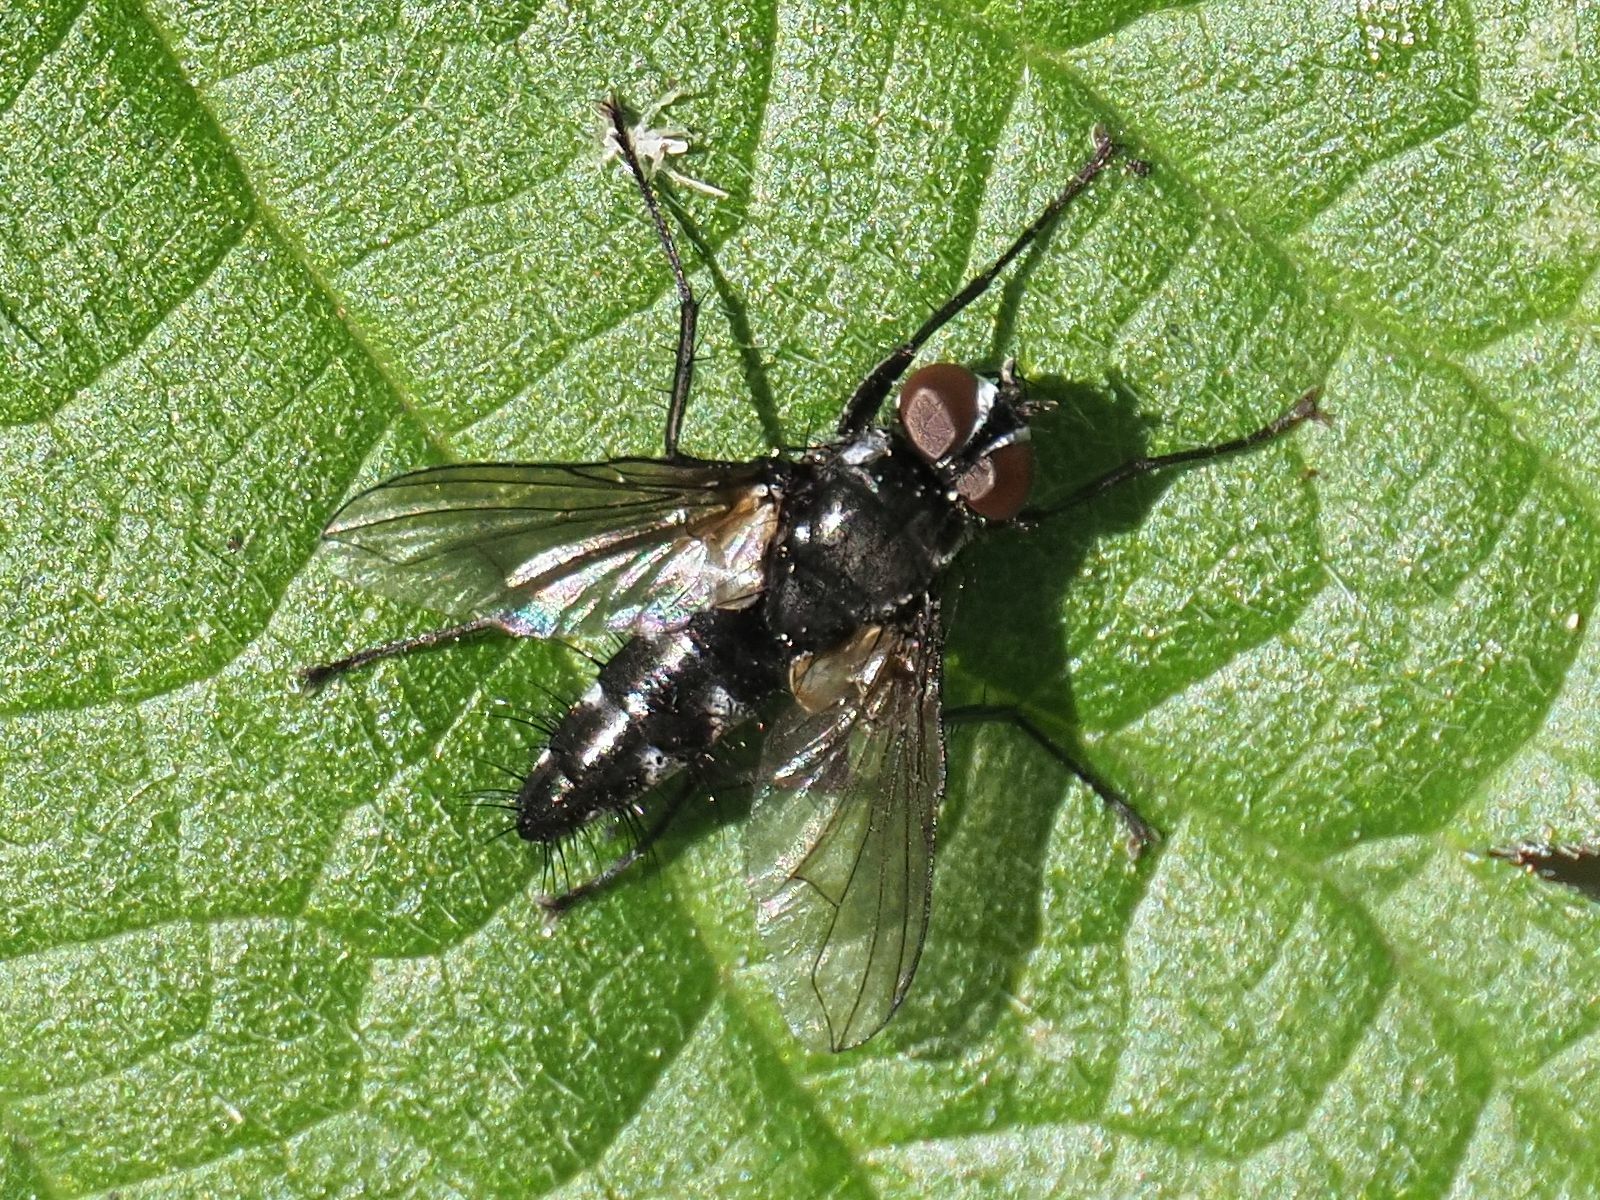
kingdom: Animalia
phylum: Arthropoda
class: Insecta
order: Diptera
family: Tachinidae
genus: Phyllomya
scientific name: Phyllomya volvulus
